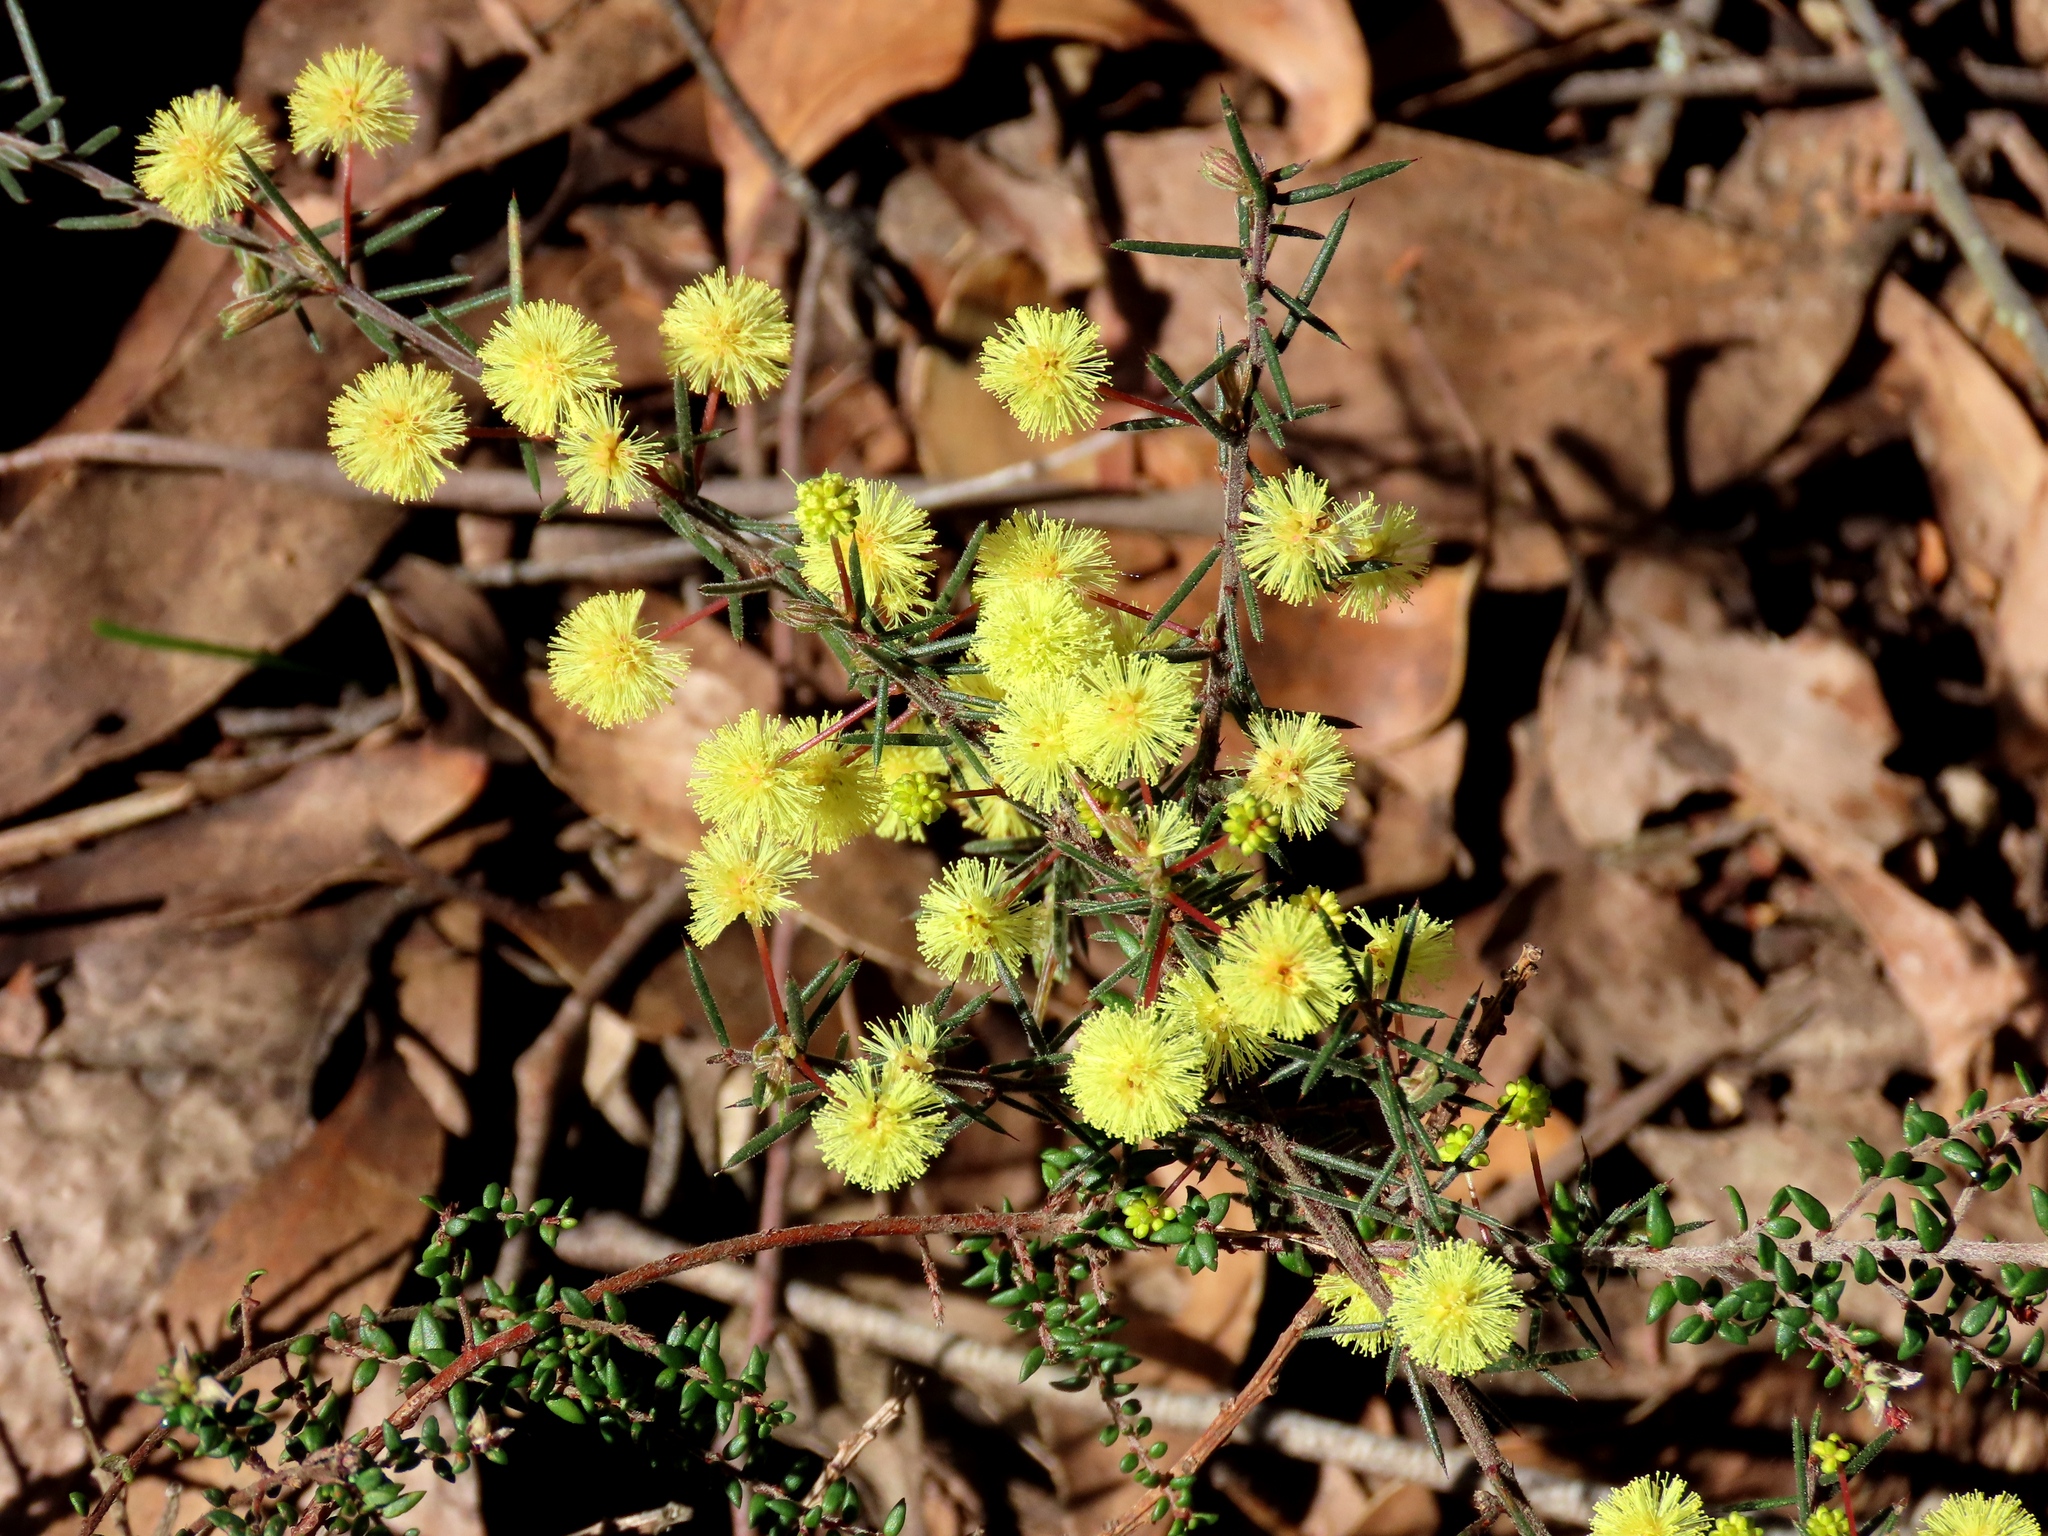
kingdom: Plantae
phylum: Tracheophyta
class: Magnoliopsida
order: Fabales
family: Fabaceae
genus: Acacia
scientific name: Acacia aculeatissima
